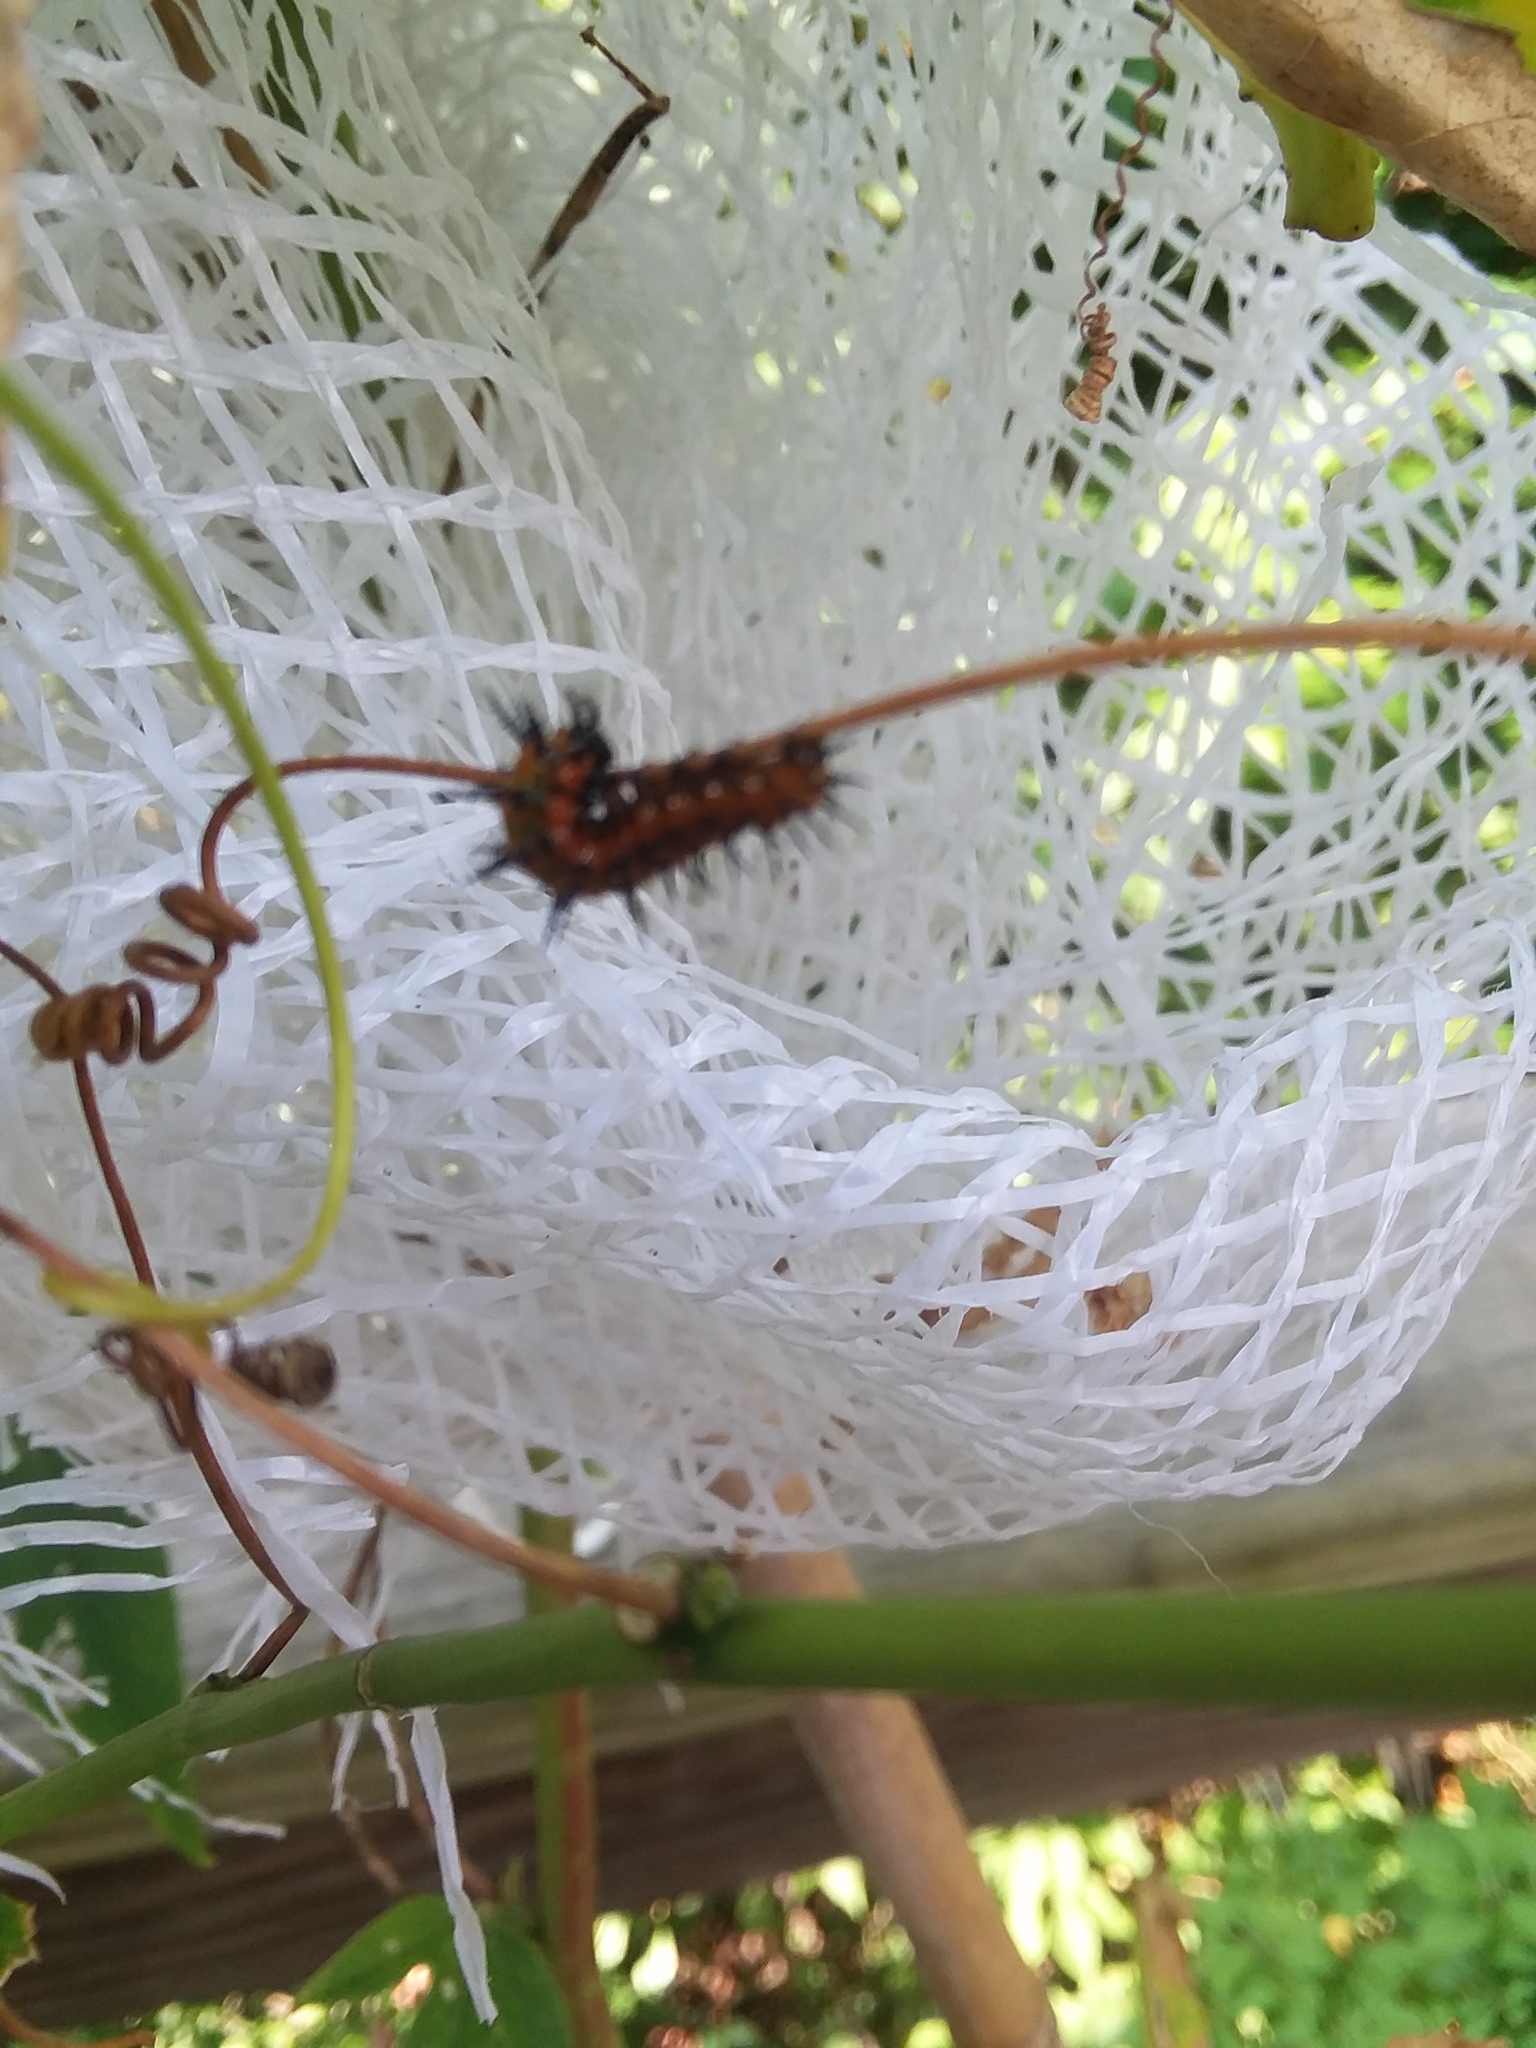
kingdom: Animalia
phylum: Arthropoda
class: Insecta
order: Lepidoptera
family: Nymphalidae
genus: Dione
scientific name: Dione vanillae
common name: Gulf fritillary
